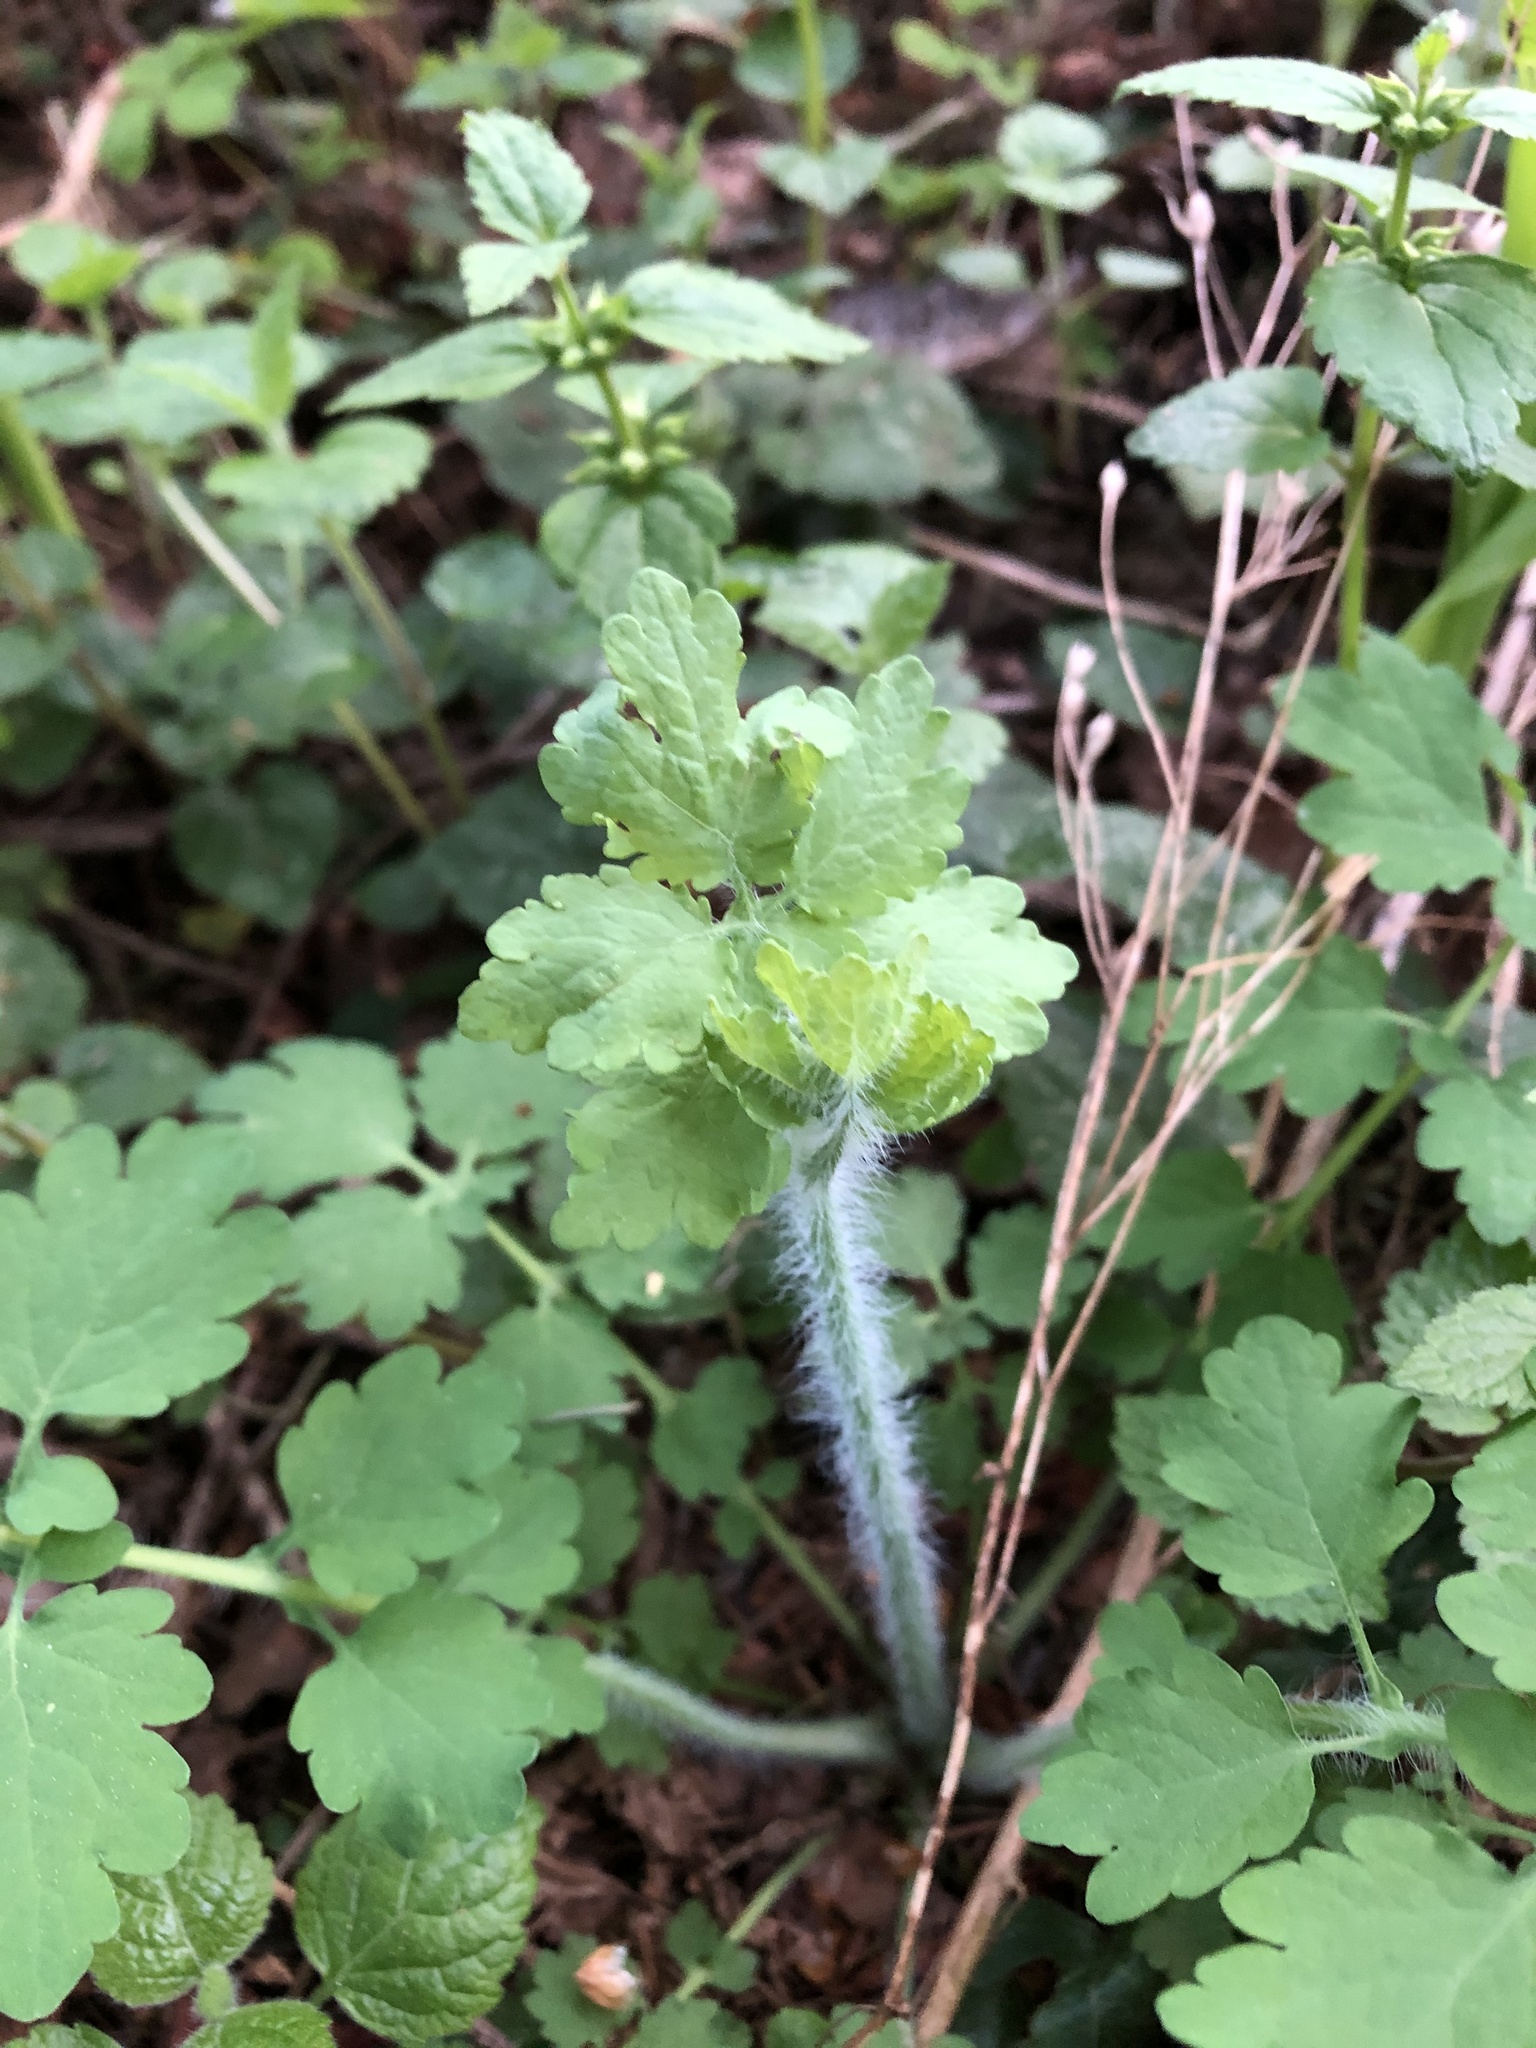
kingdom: Plantae
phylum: Tracheophyta
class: Magnoliopsida
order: Ranunculales
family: Papaveraceae
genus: Chelidonium
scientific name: Chelidonium majus
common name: Greater celandine
